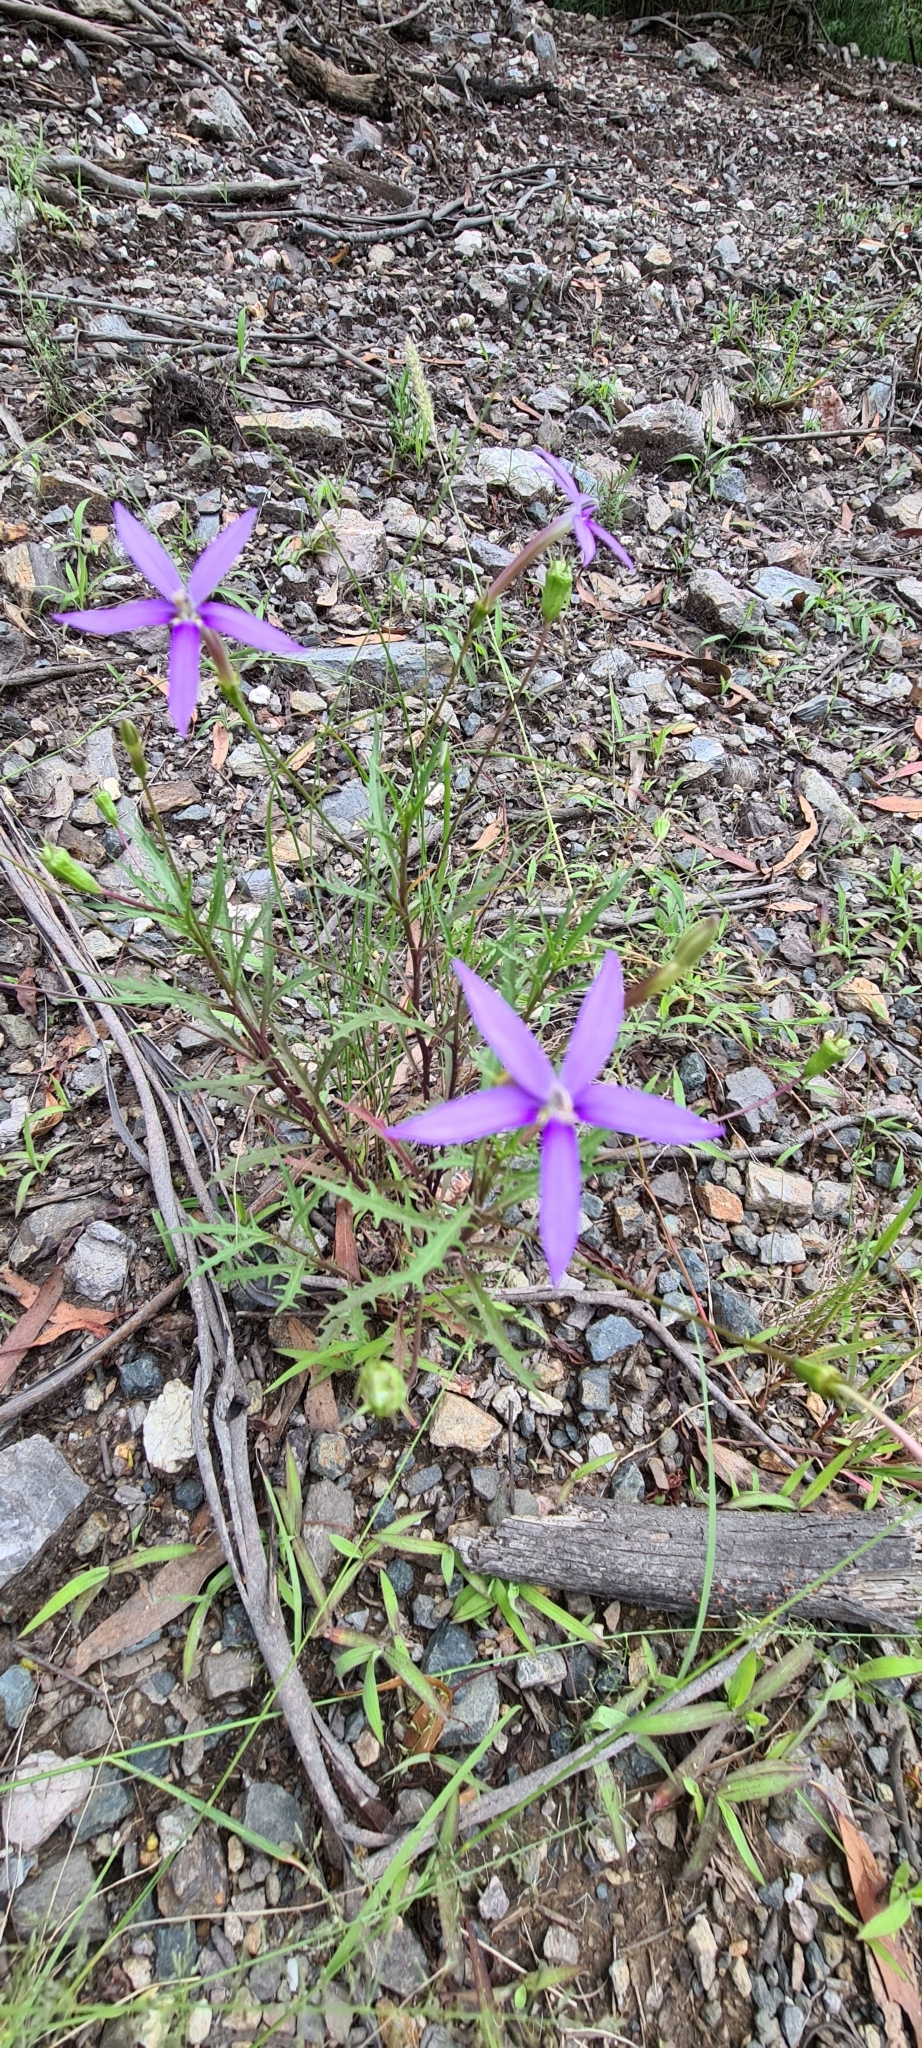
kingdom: Plantae
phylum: Tracheophyta
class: Magnoliopsida
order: Asterales
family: Campanulaceae
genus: Lithotoma
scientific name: Lithotoma axillaris
